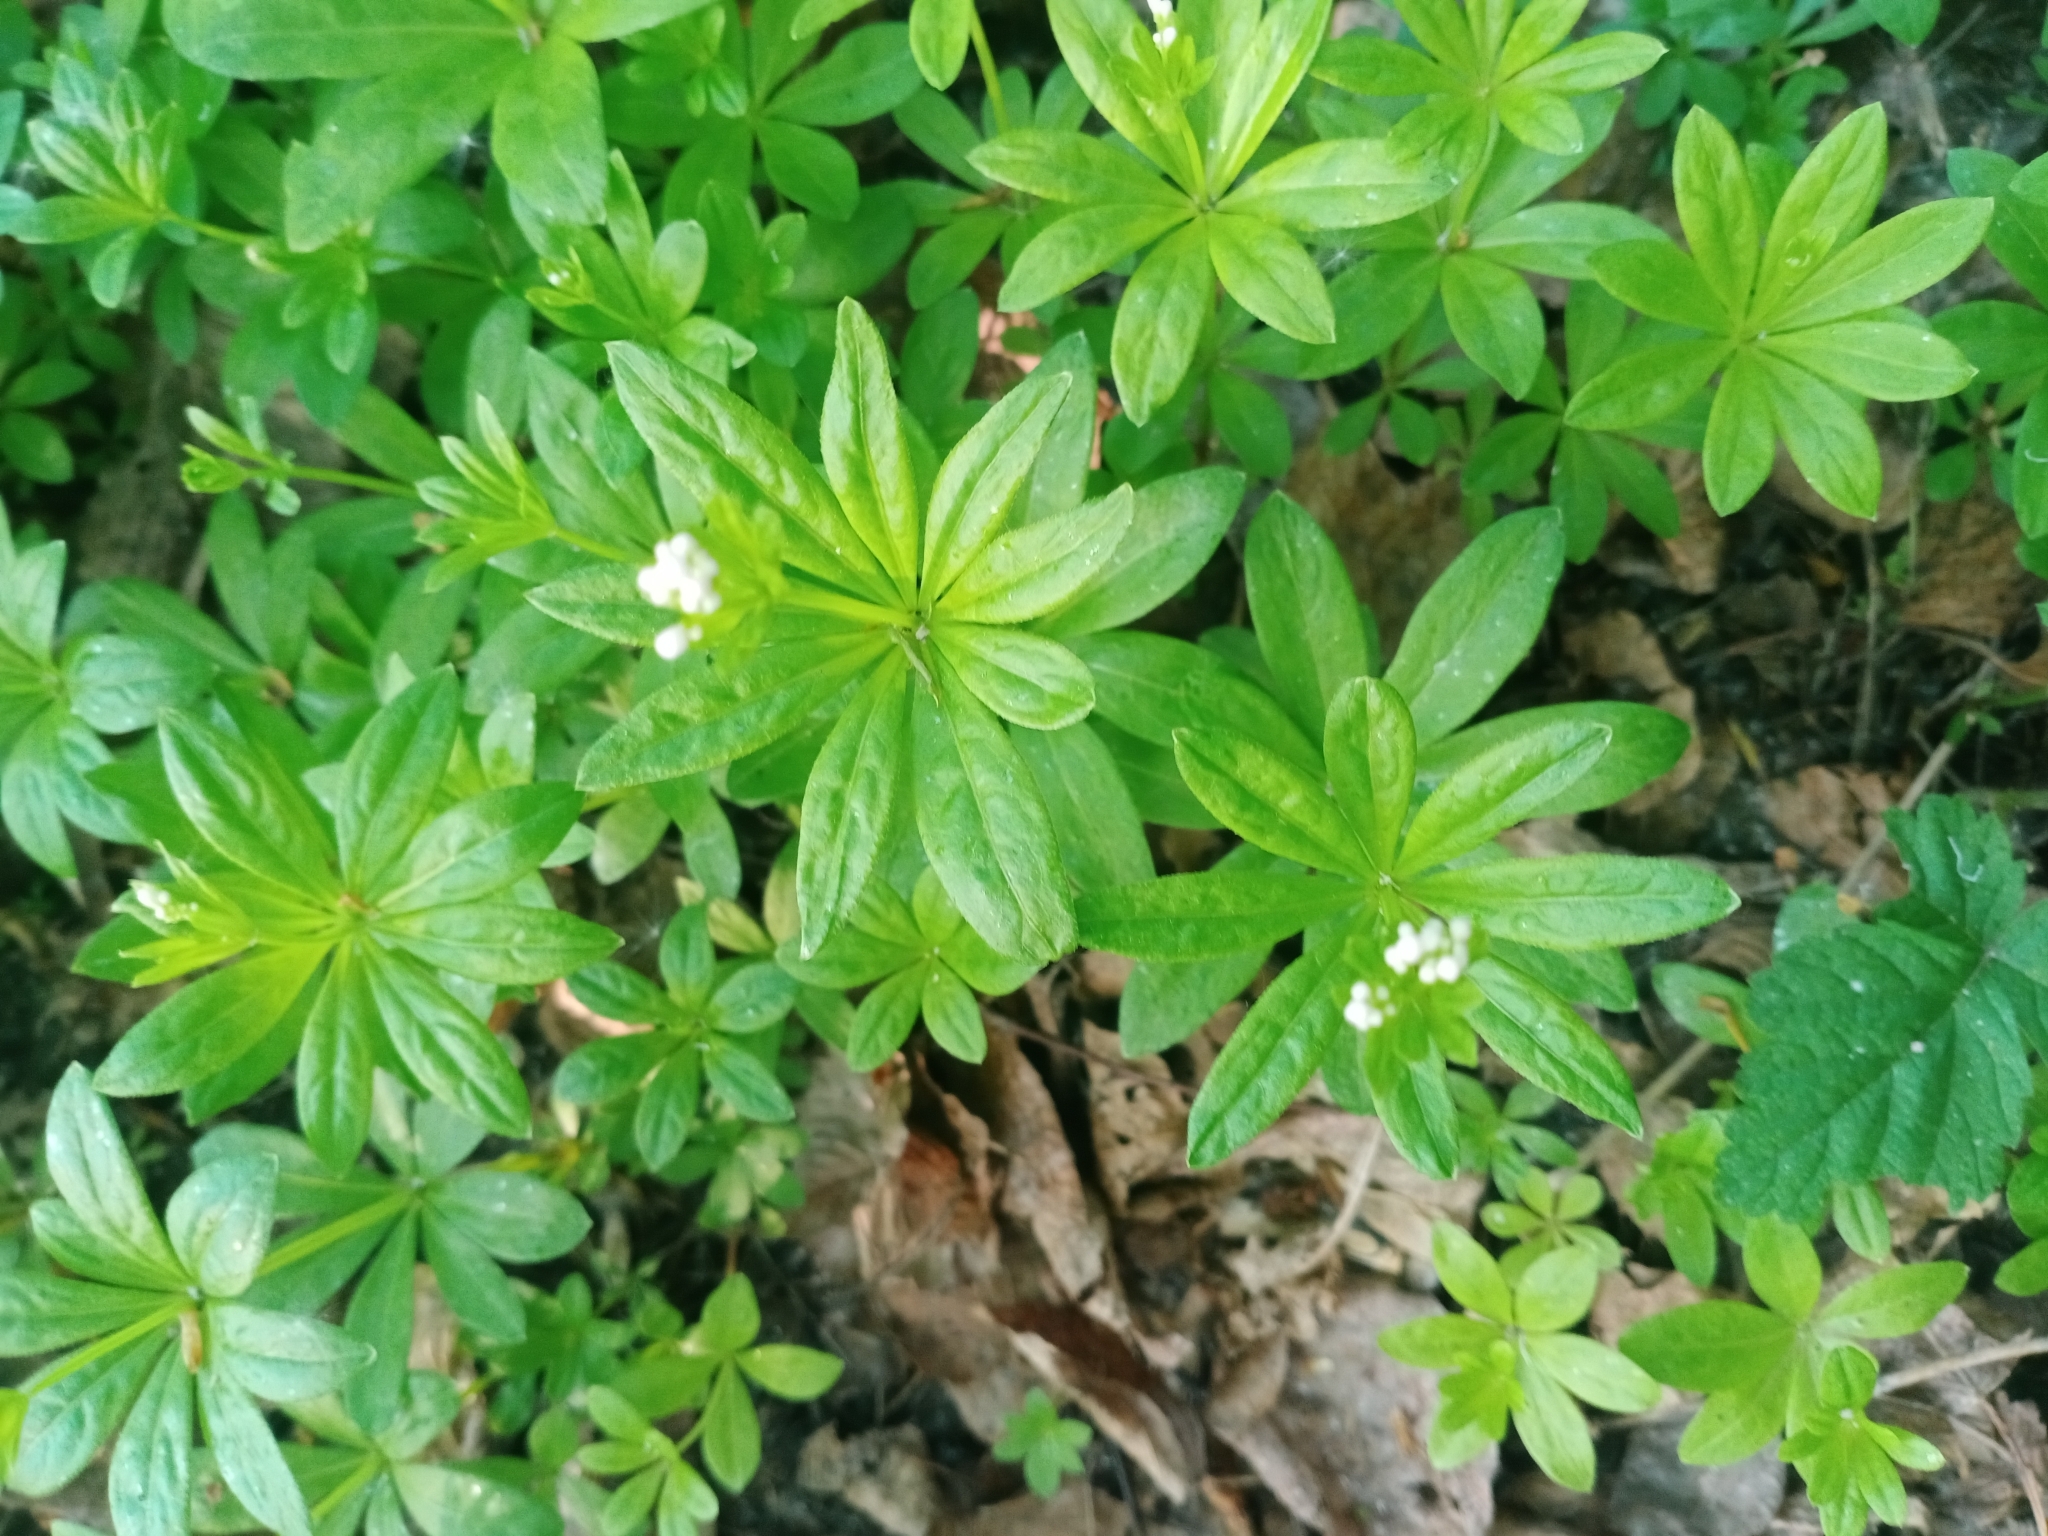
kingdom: Plantae
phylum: Tracheophyta
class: Magnoliopsida
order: Gentianales
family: Rubiaceae
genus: Galium
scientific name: Galium odoratum
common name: Sweet woodruff
